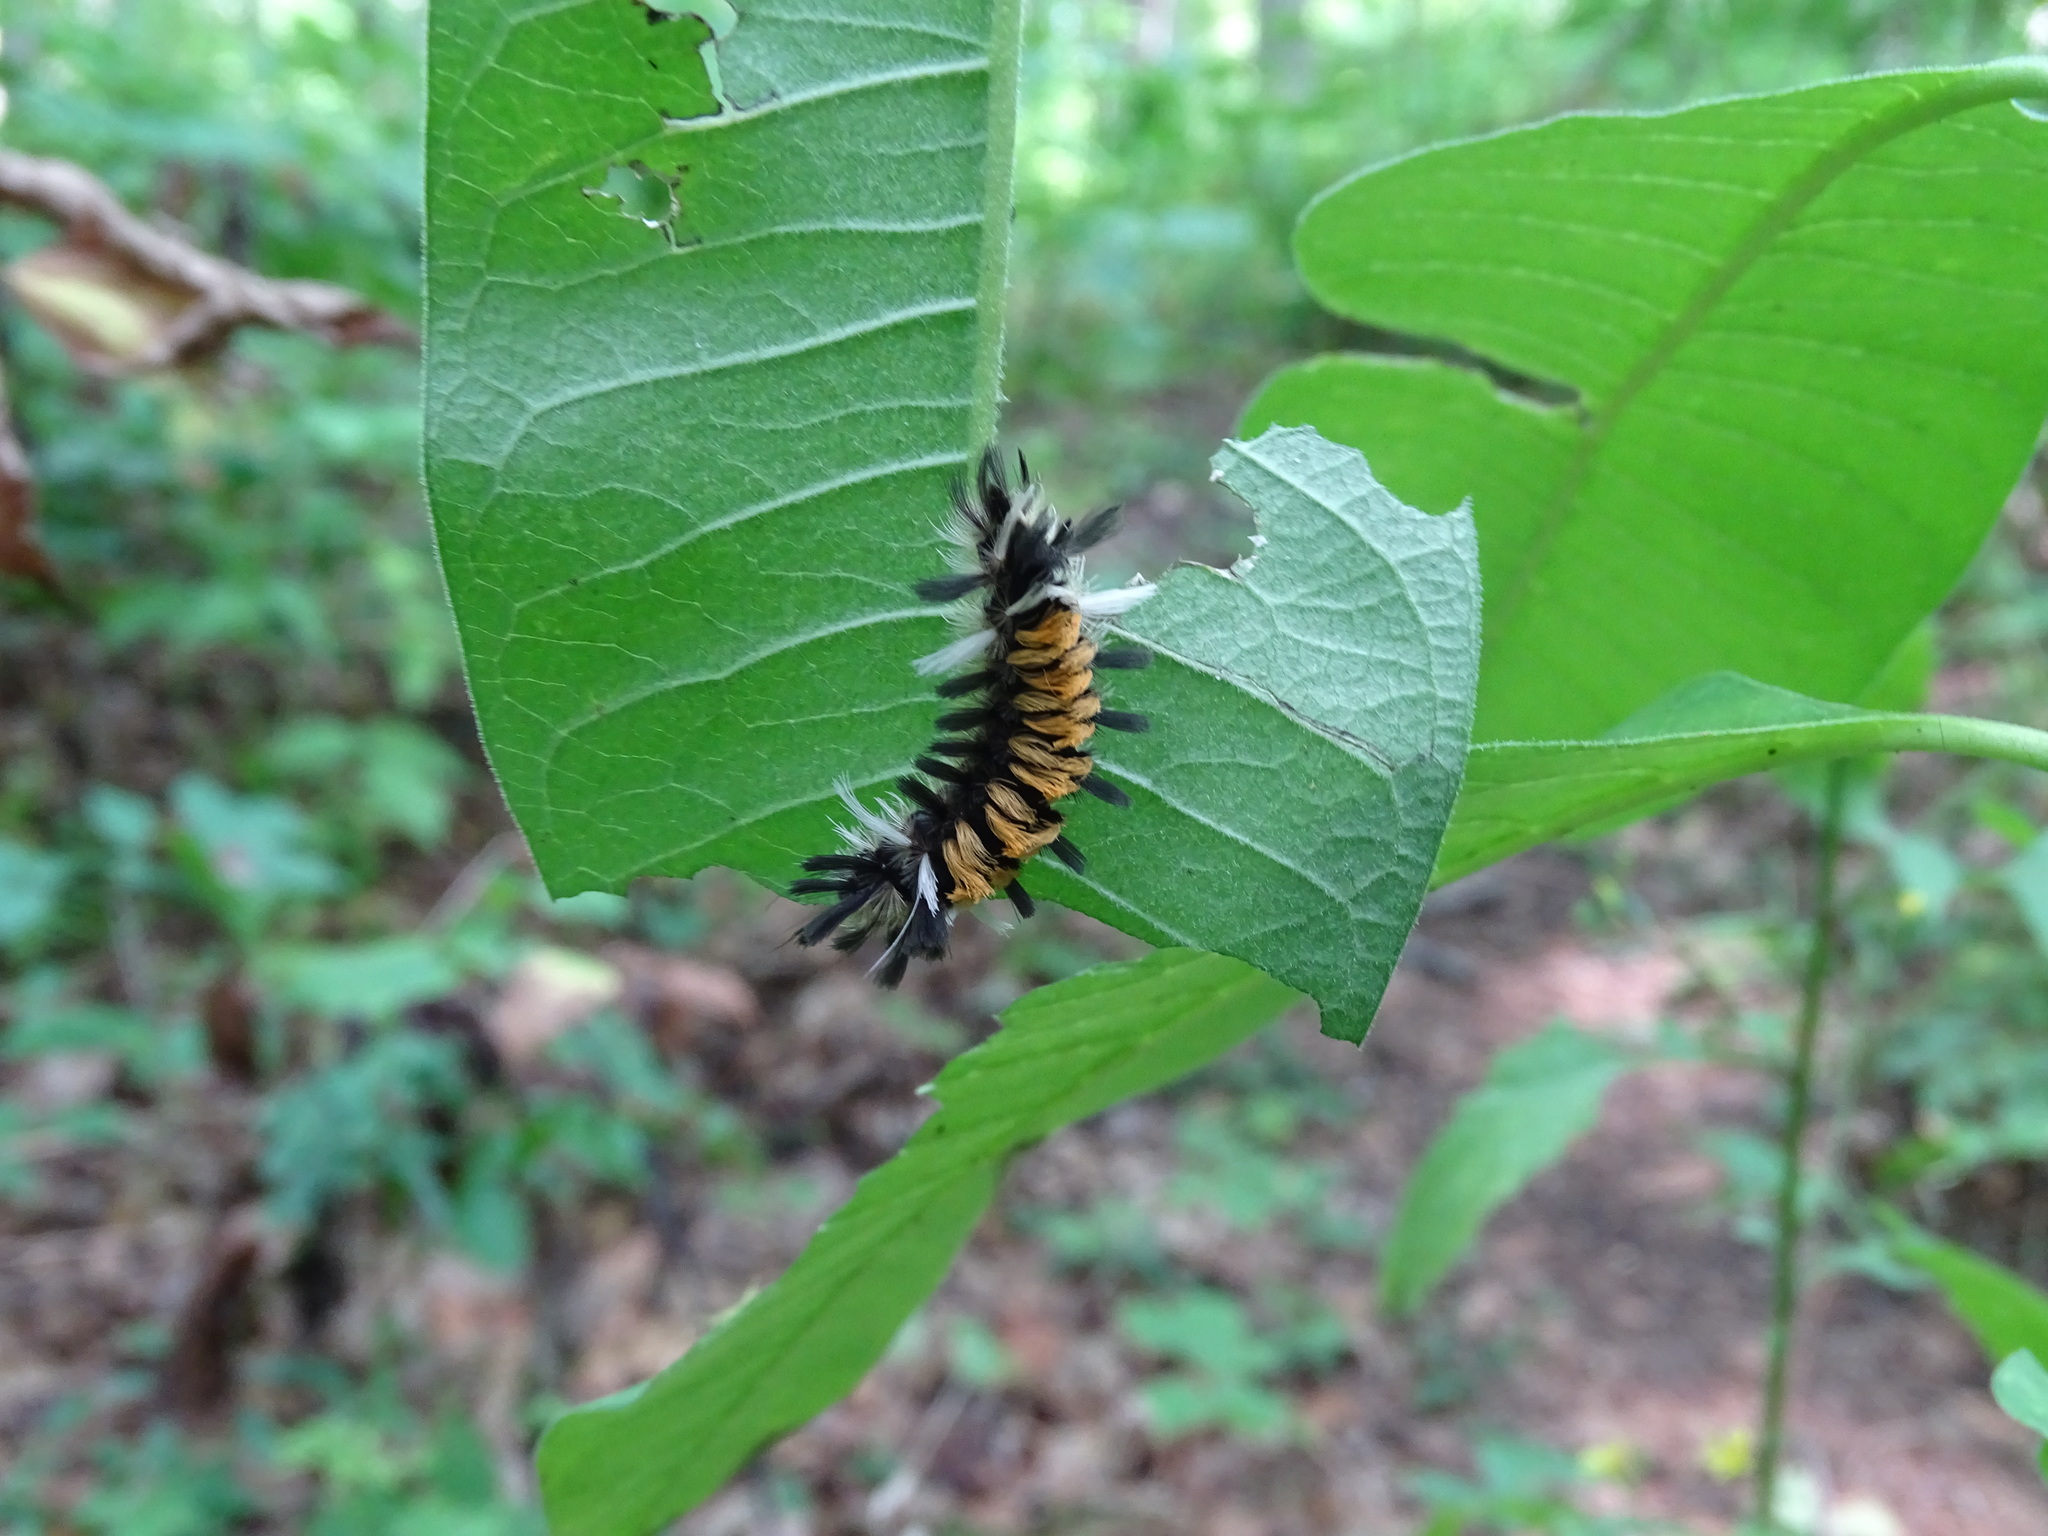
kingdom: Animalia
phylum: Arthropoda
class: Insecta
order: Lepidoptera
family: Erebidae
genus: Euchaetes
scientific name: Euchaetes egle
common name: Milkweed tussock moth
